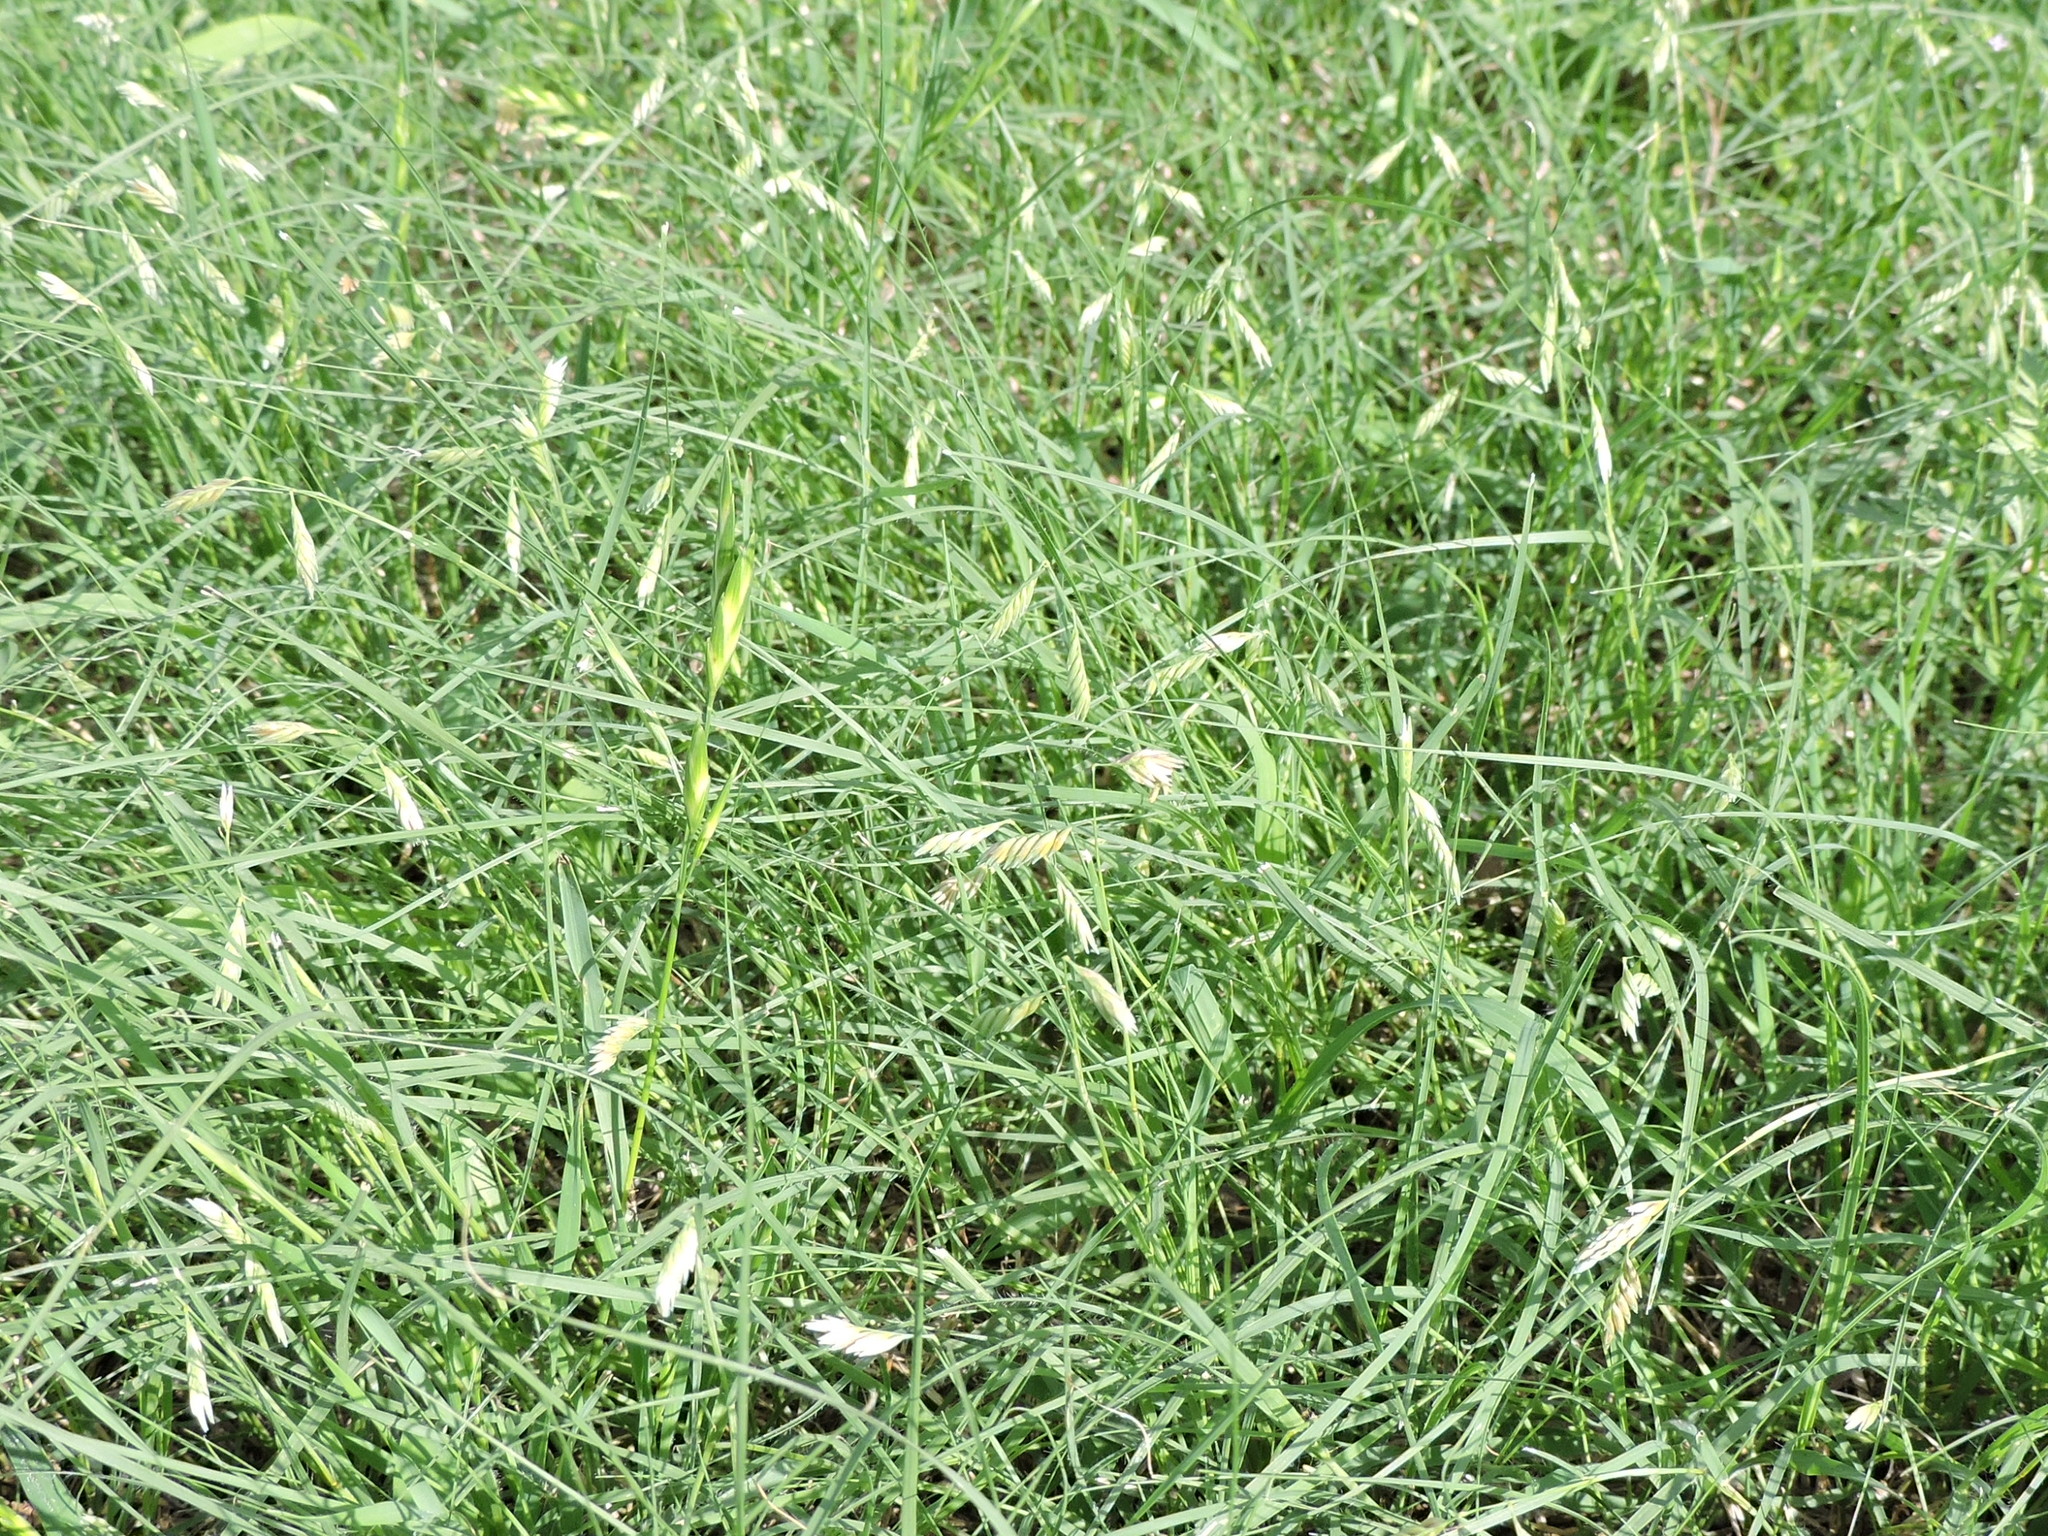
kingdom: Plantae
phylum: Tracheophyta
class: Liliopsida
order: Poales
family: Poaceae
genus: Bouteloua
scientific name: Bouteloua dactyloides
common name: Buffalo grass
